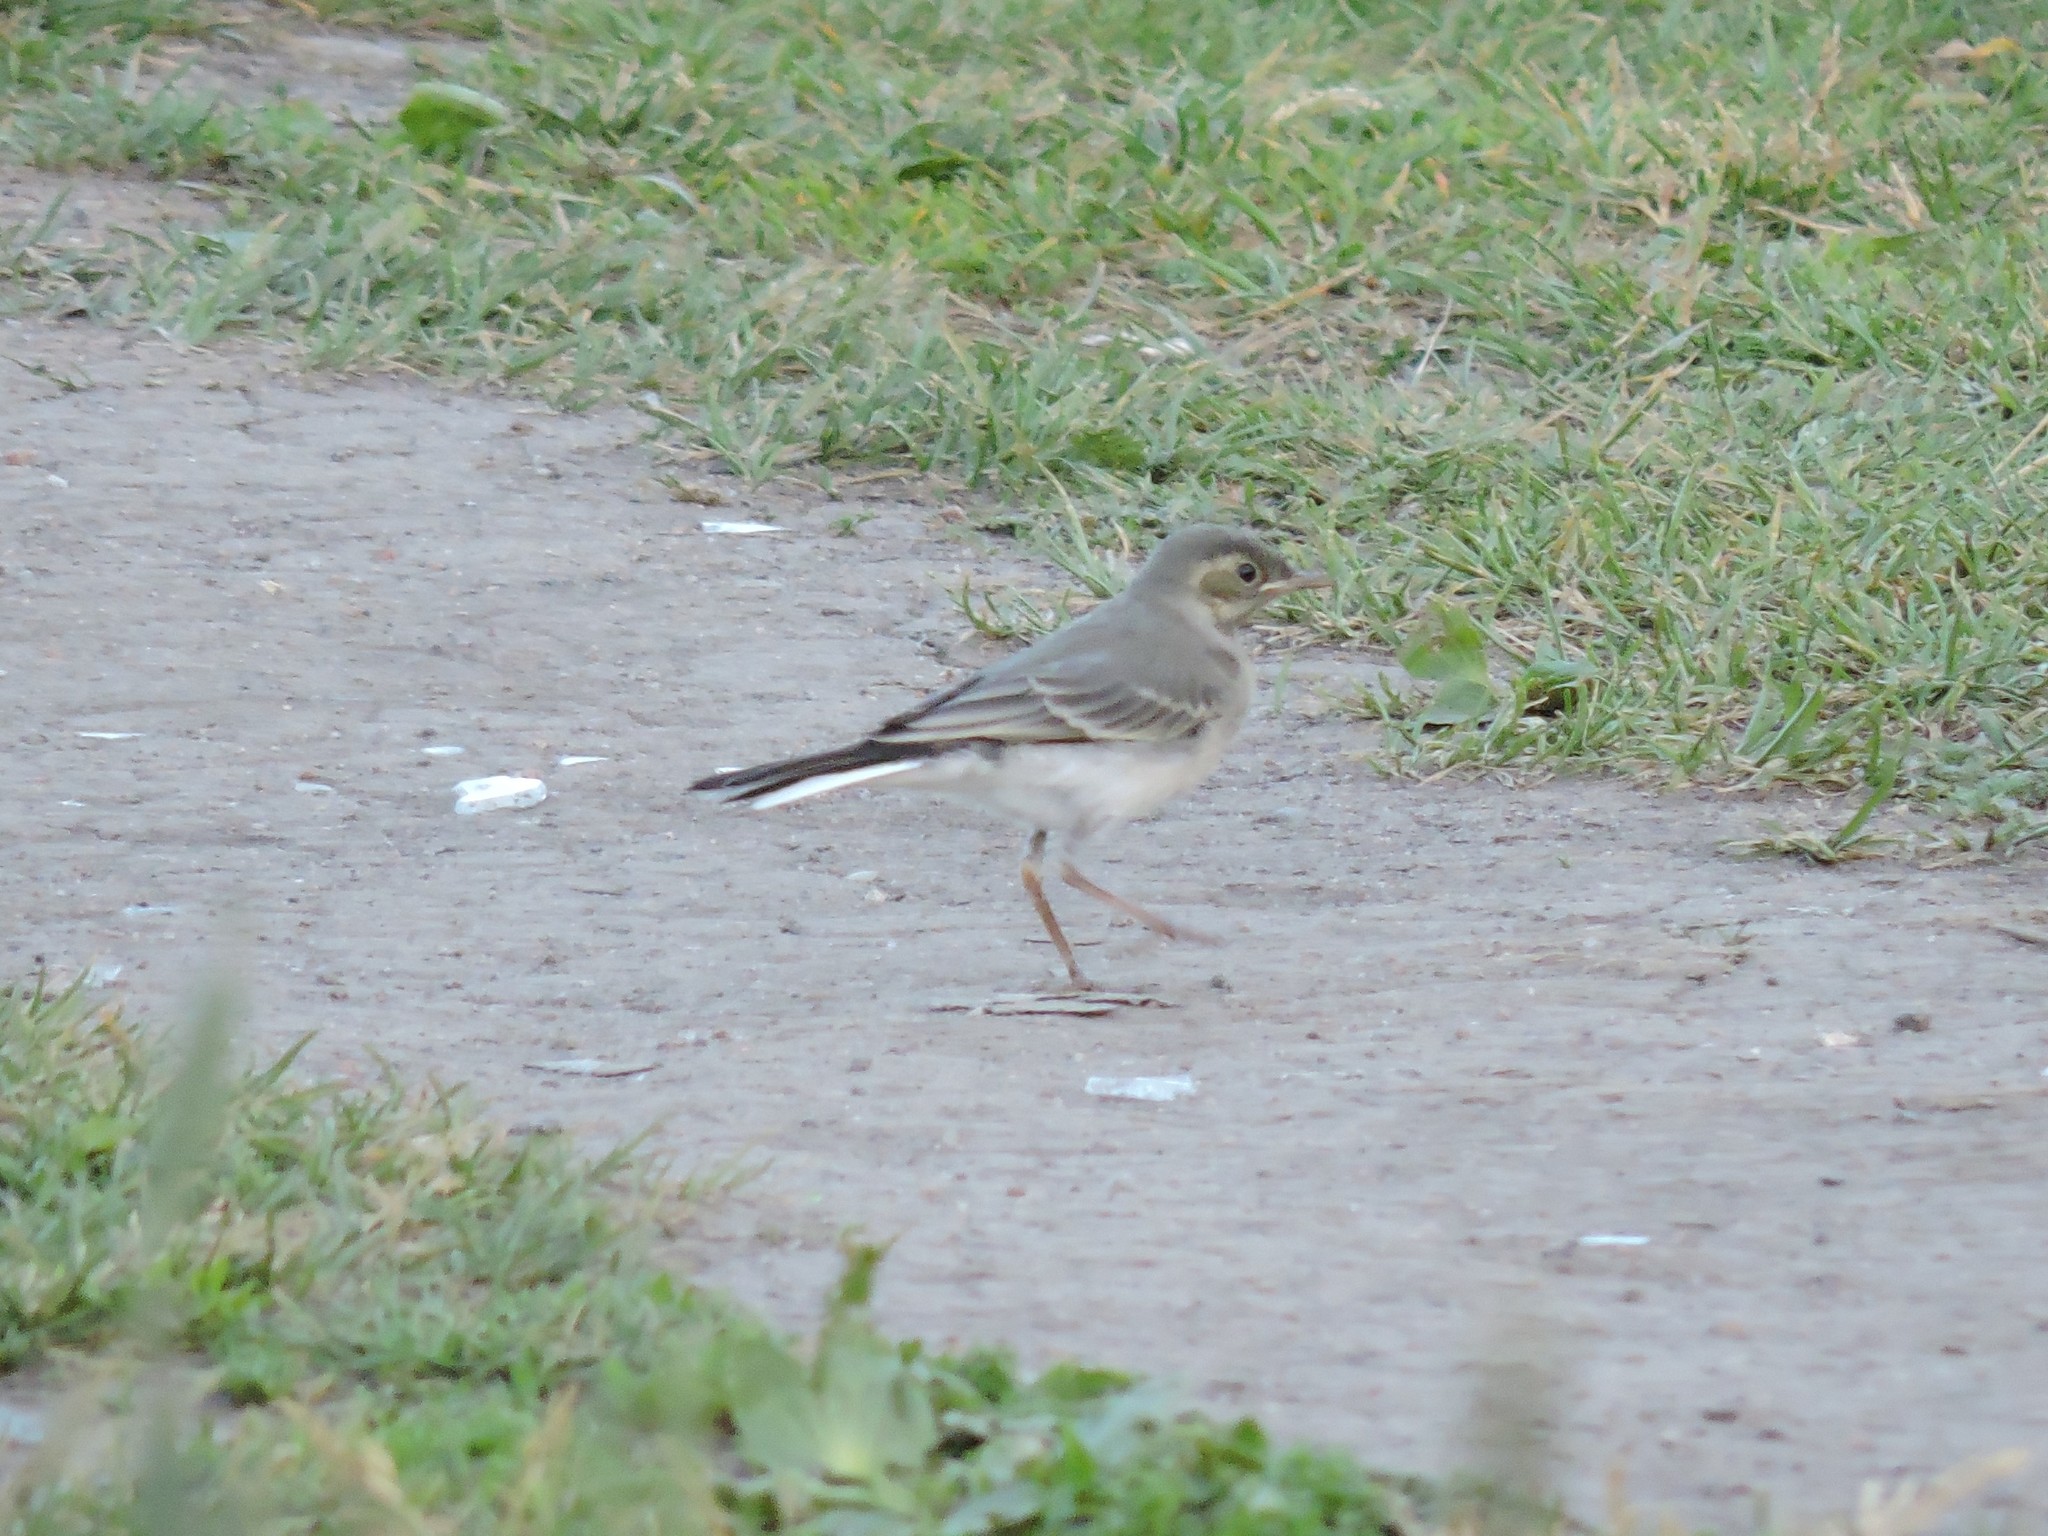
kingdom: Animalia
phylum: Chordata
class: Aves
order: Passeriformes
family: Motacillidae
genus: Motacilla
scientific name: Motacilla alba
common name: White wagtail
